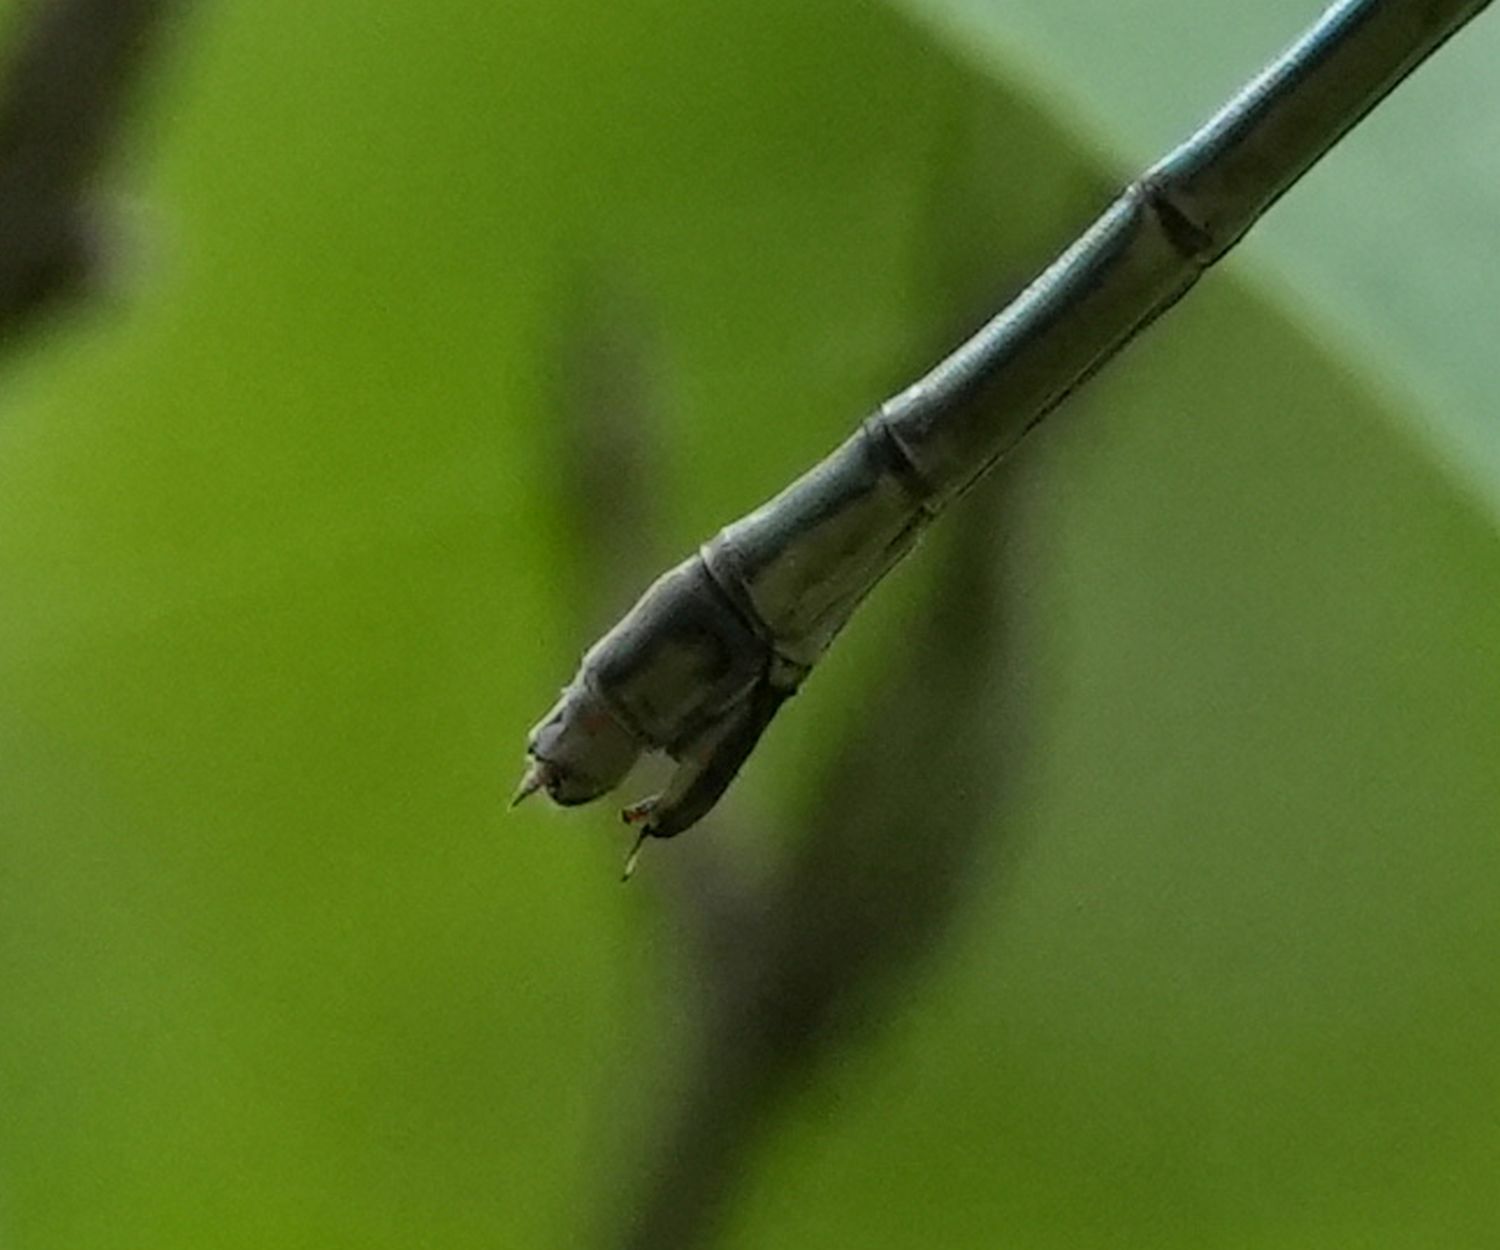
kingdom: Animalia
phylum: Arthropoda
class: Insecta
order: Odonata
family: Lestidae
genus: Lestes
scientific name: Lestes inaequalis
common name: Elegant spreadwing
